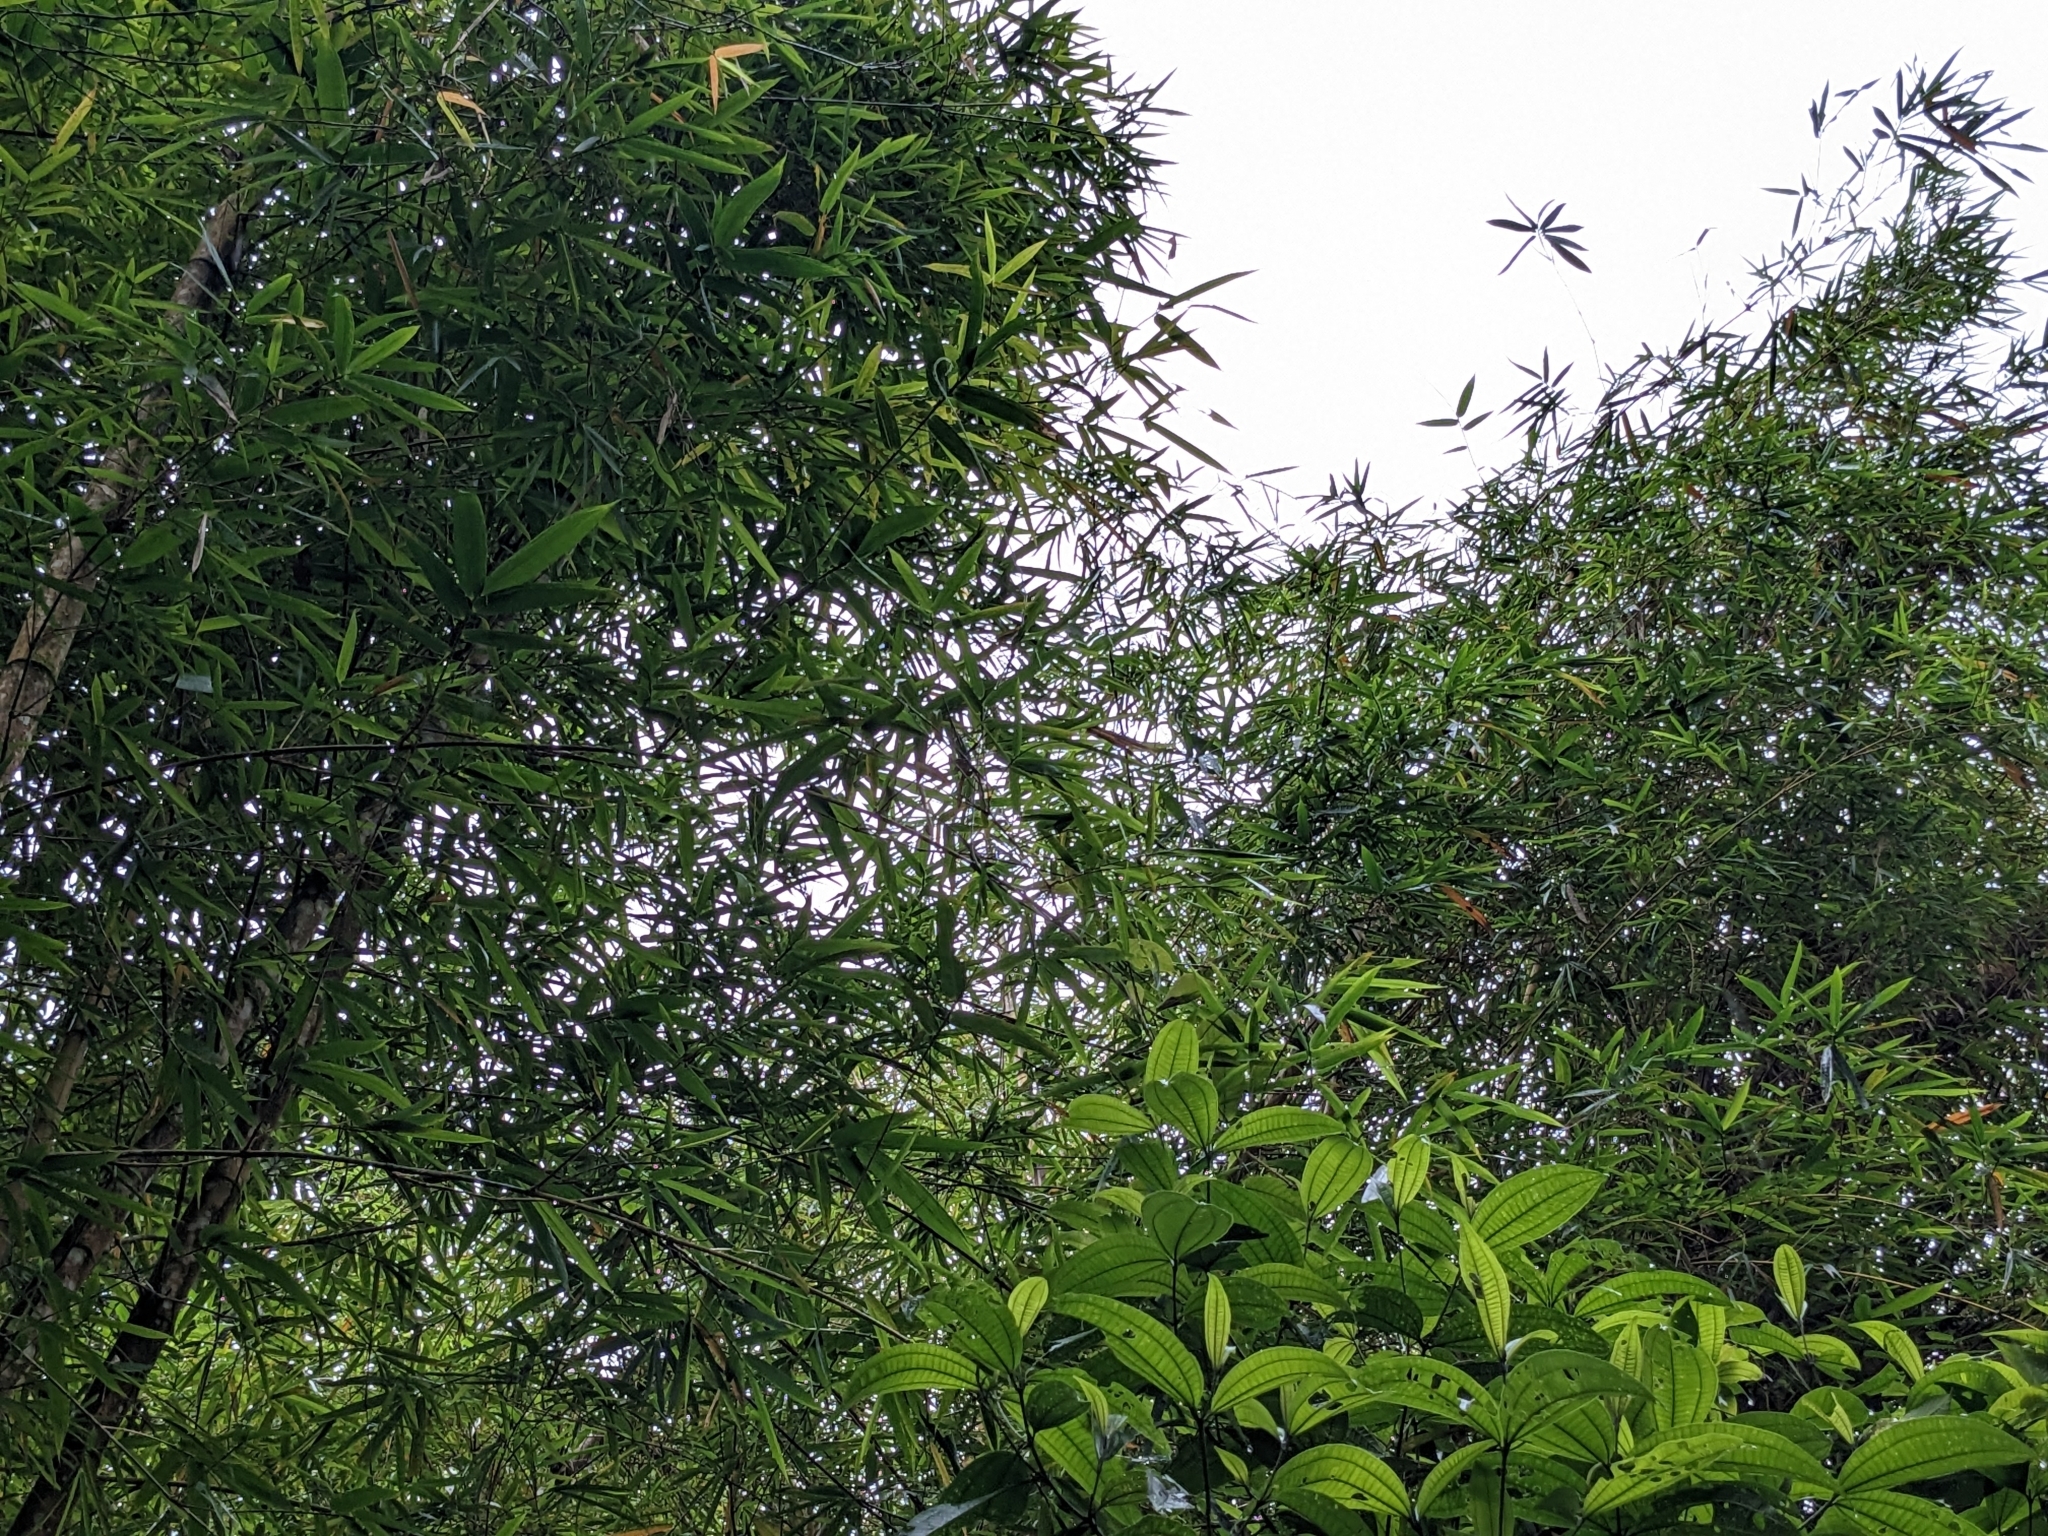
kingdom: Plantae
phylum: Tracheophyta
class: Liliopsida
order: Poales
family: Poaceae
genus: Bambusa
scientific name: Bambusa vulgaris
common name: Common bamboo
